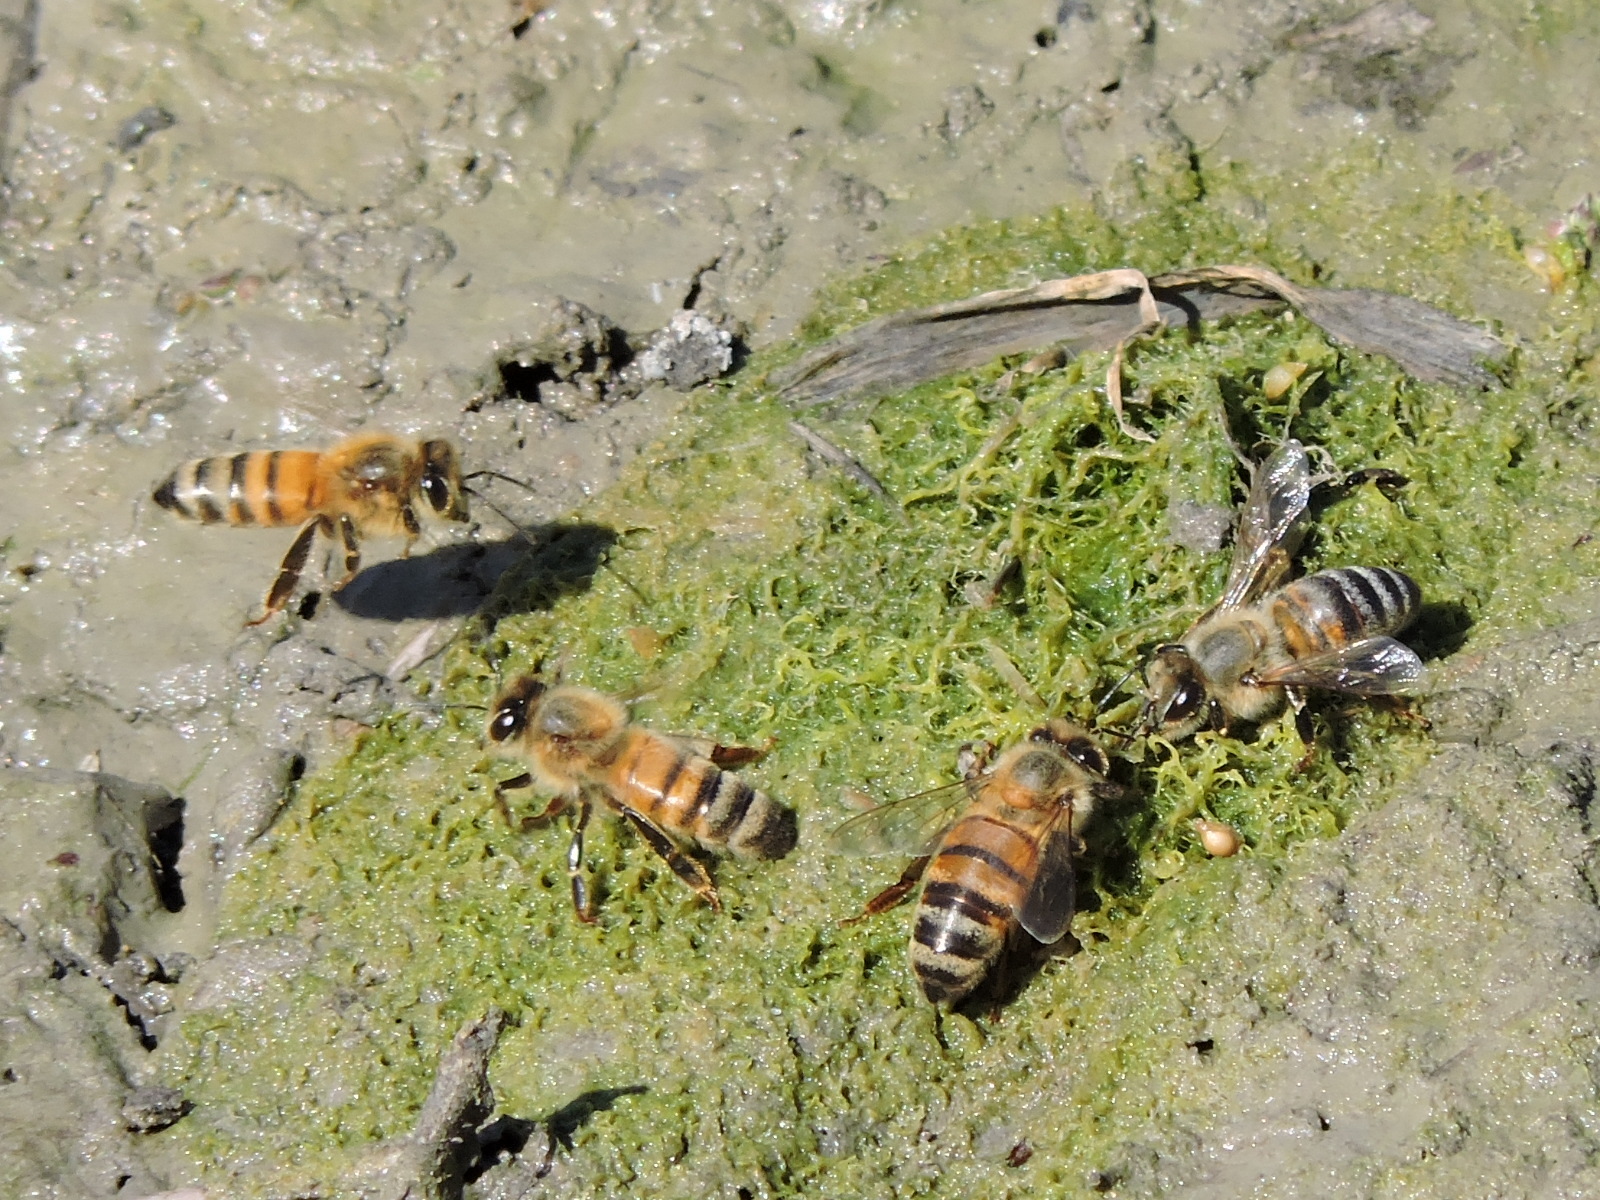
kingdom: Animalia
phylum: Arthropoda
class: Insecta
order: Hymenoptera
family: Apidae
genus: Apis
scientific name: Apis mellifera
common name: Honey bee
